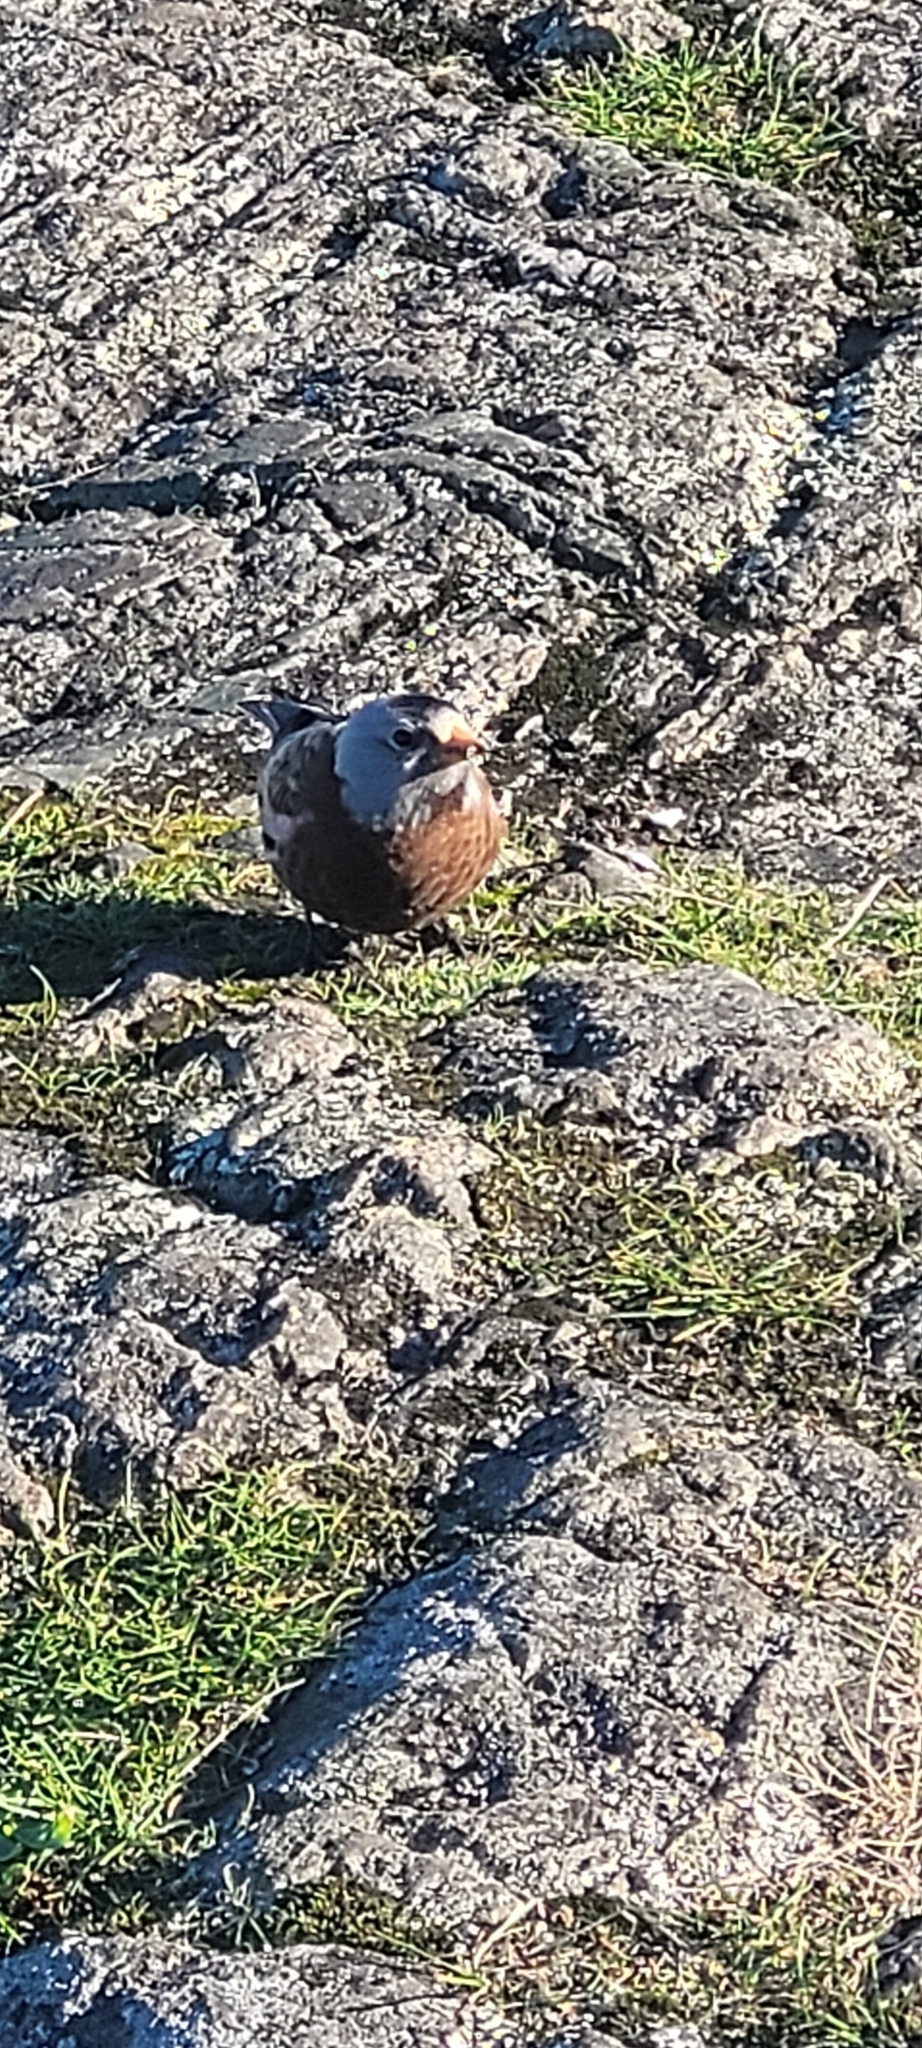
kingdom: Animalia
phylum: Chordata
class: Aves
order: Passeriformes
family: Fringillidae
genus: Leucosticte
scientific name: Leucosticte tephrocotis
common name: Gray-crowned rosy-finch
